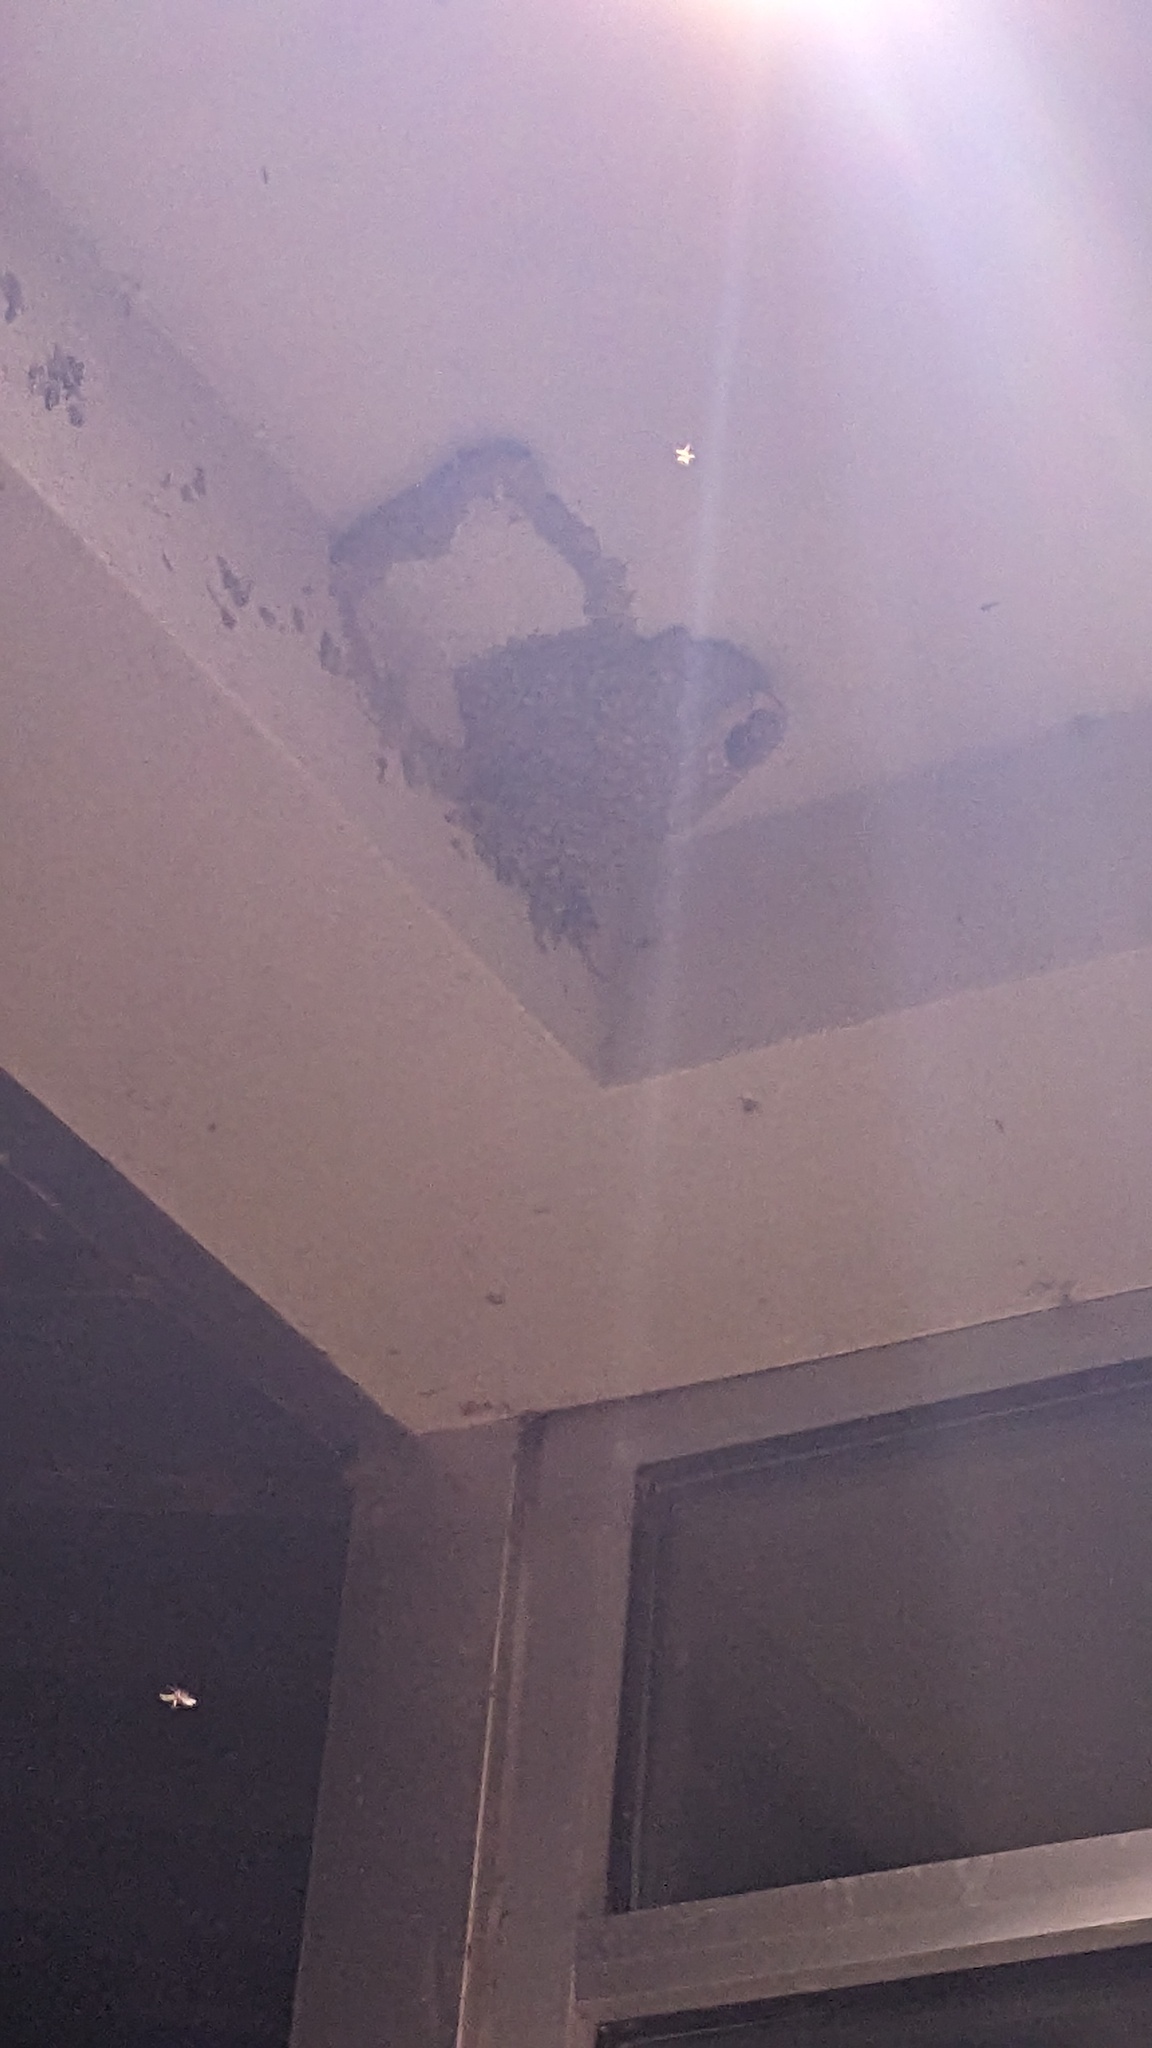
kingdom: Animalia
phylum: Chordata
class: Aves
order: Passeriformes
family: Hirundinidae
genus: Petrochelidon
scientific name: Petrochelidon pyrrhonota
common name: American cliff swallow
